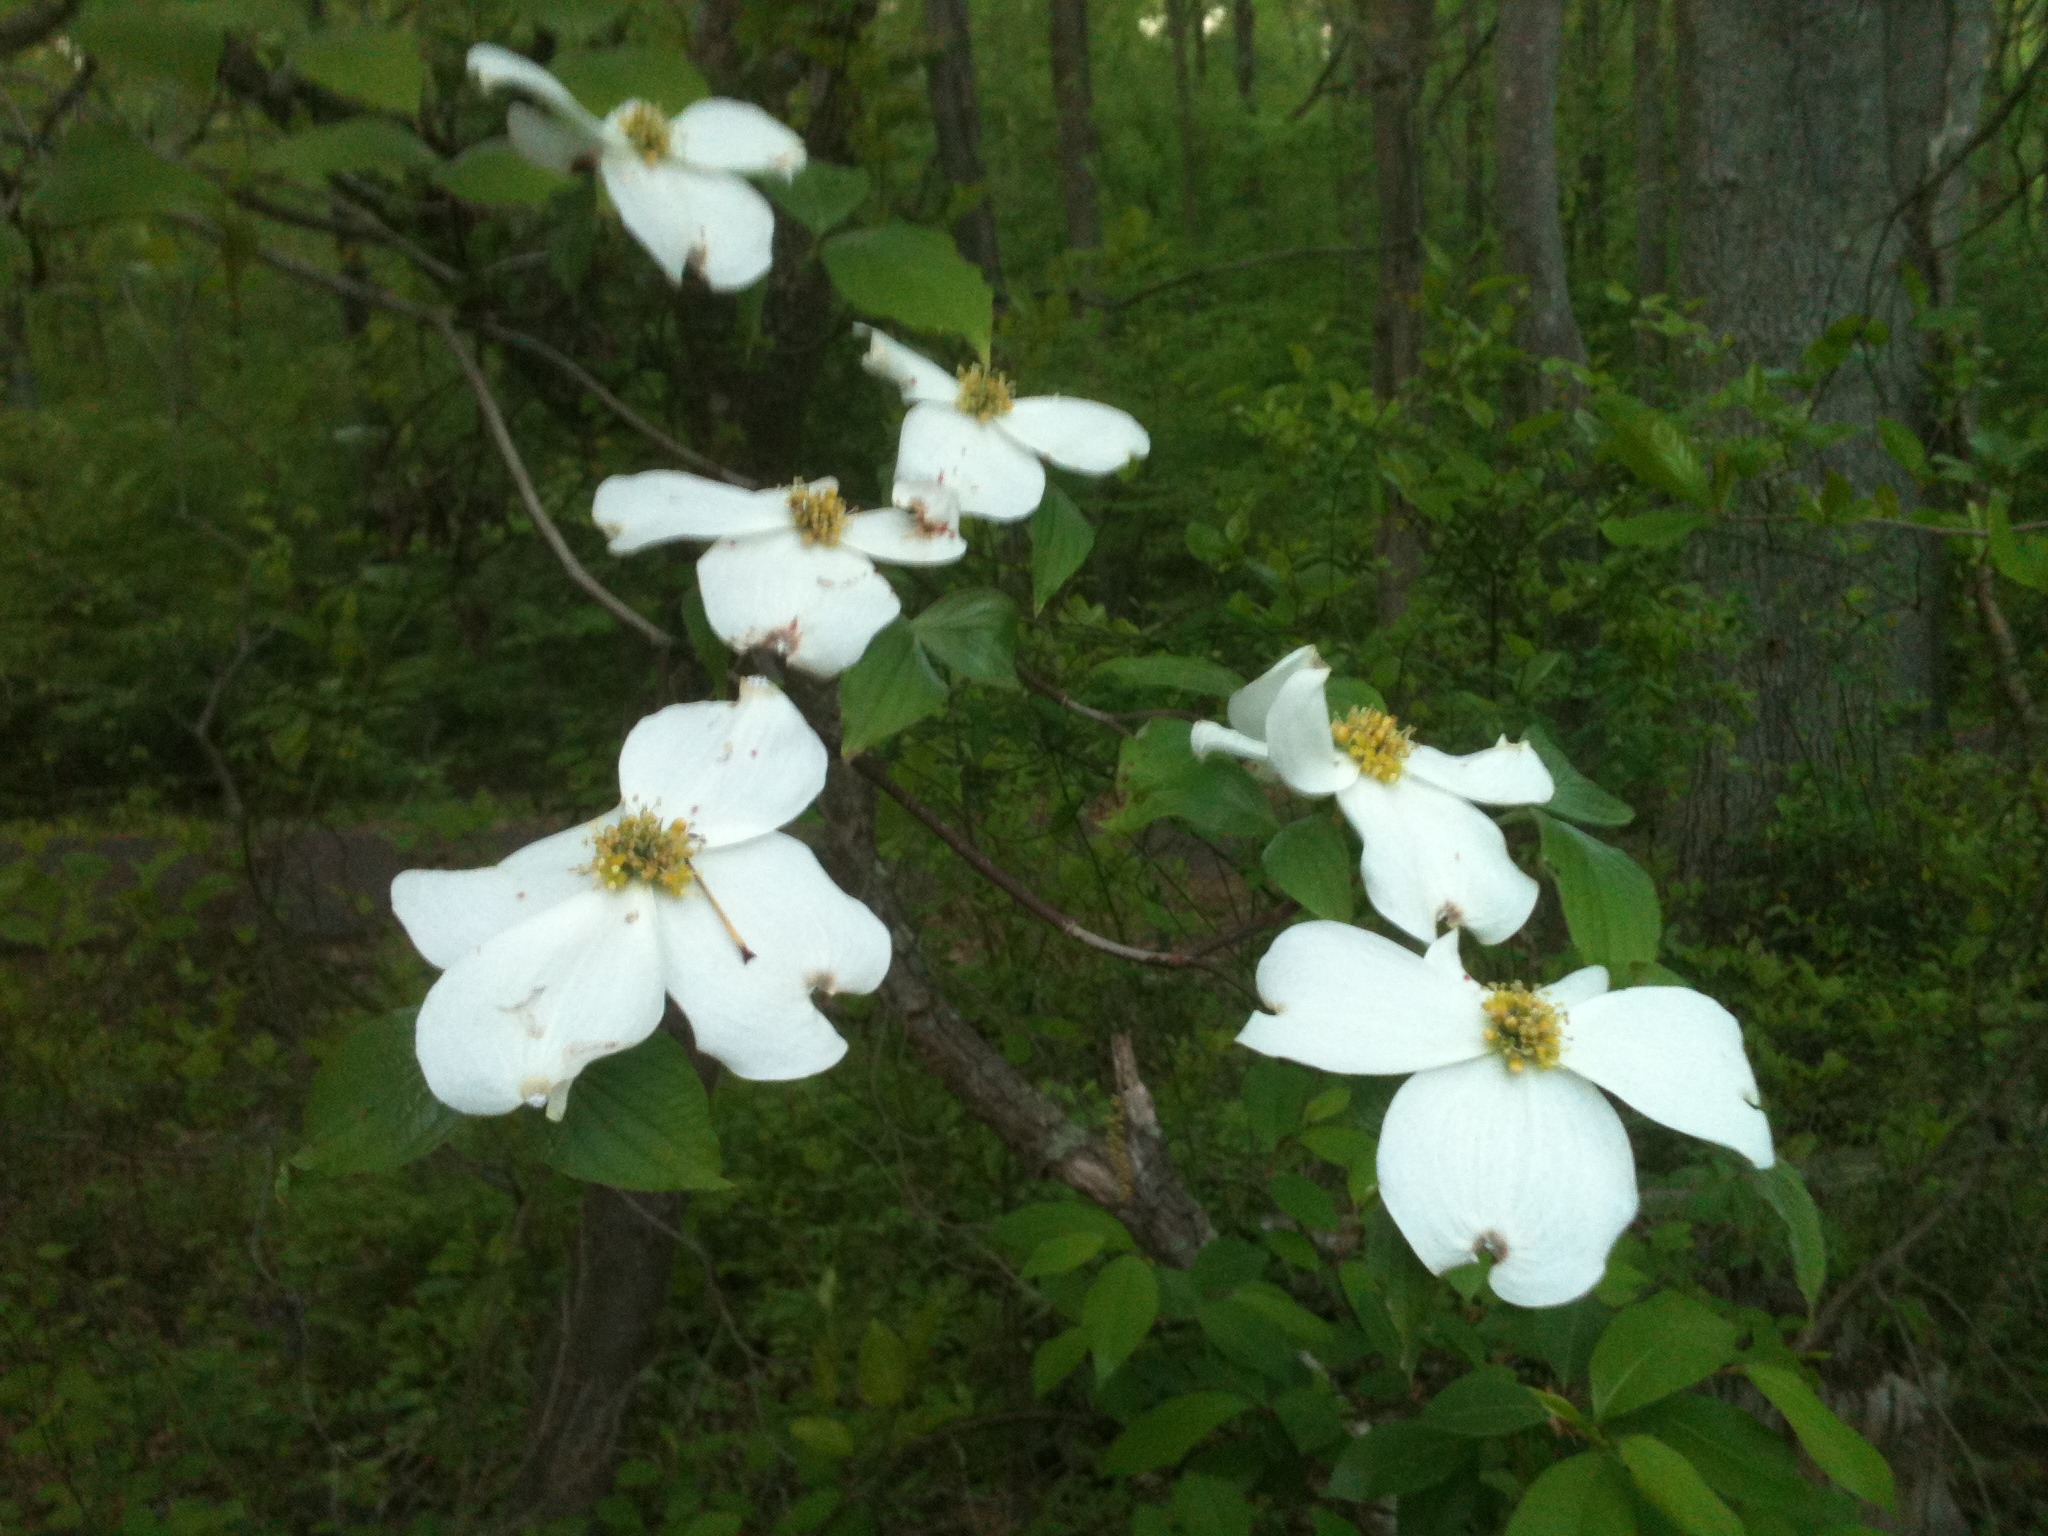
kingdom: Plantae
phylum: Tracheophyta
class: Magnoliopsida
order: Cornales
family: Cornaceae
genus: Cornus
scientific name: Cornus florida
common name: Flowering dogwood
